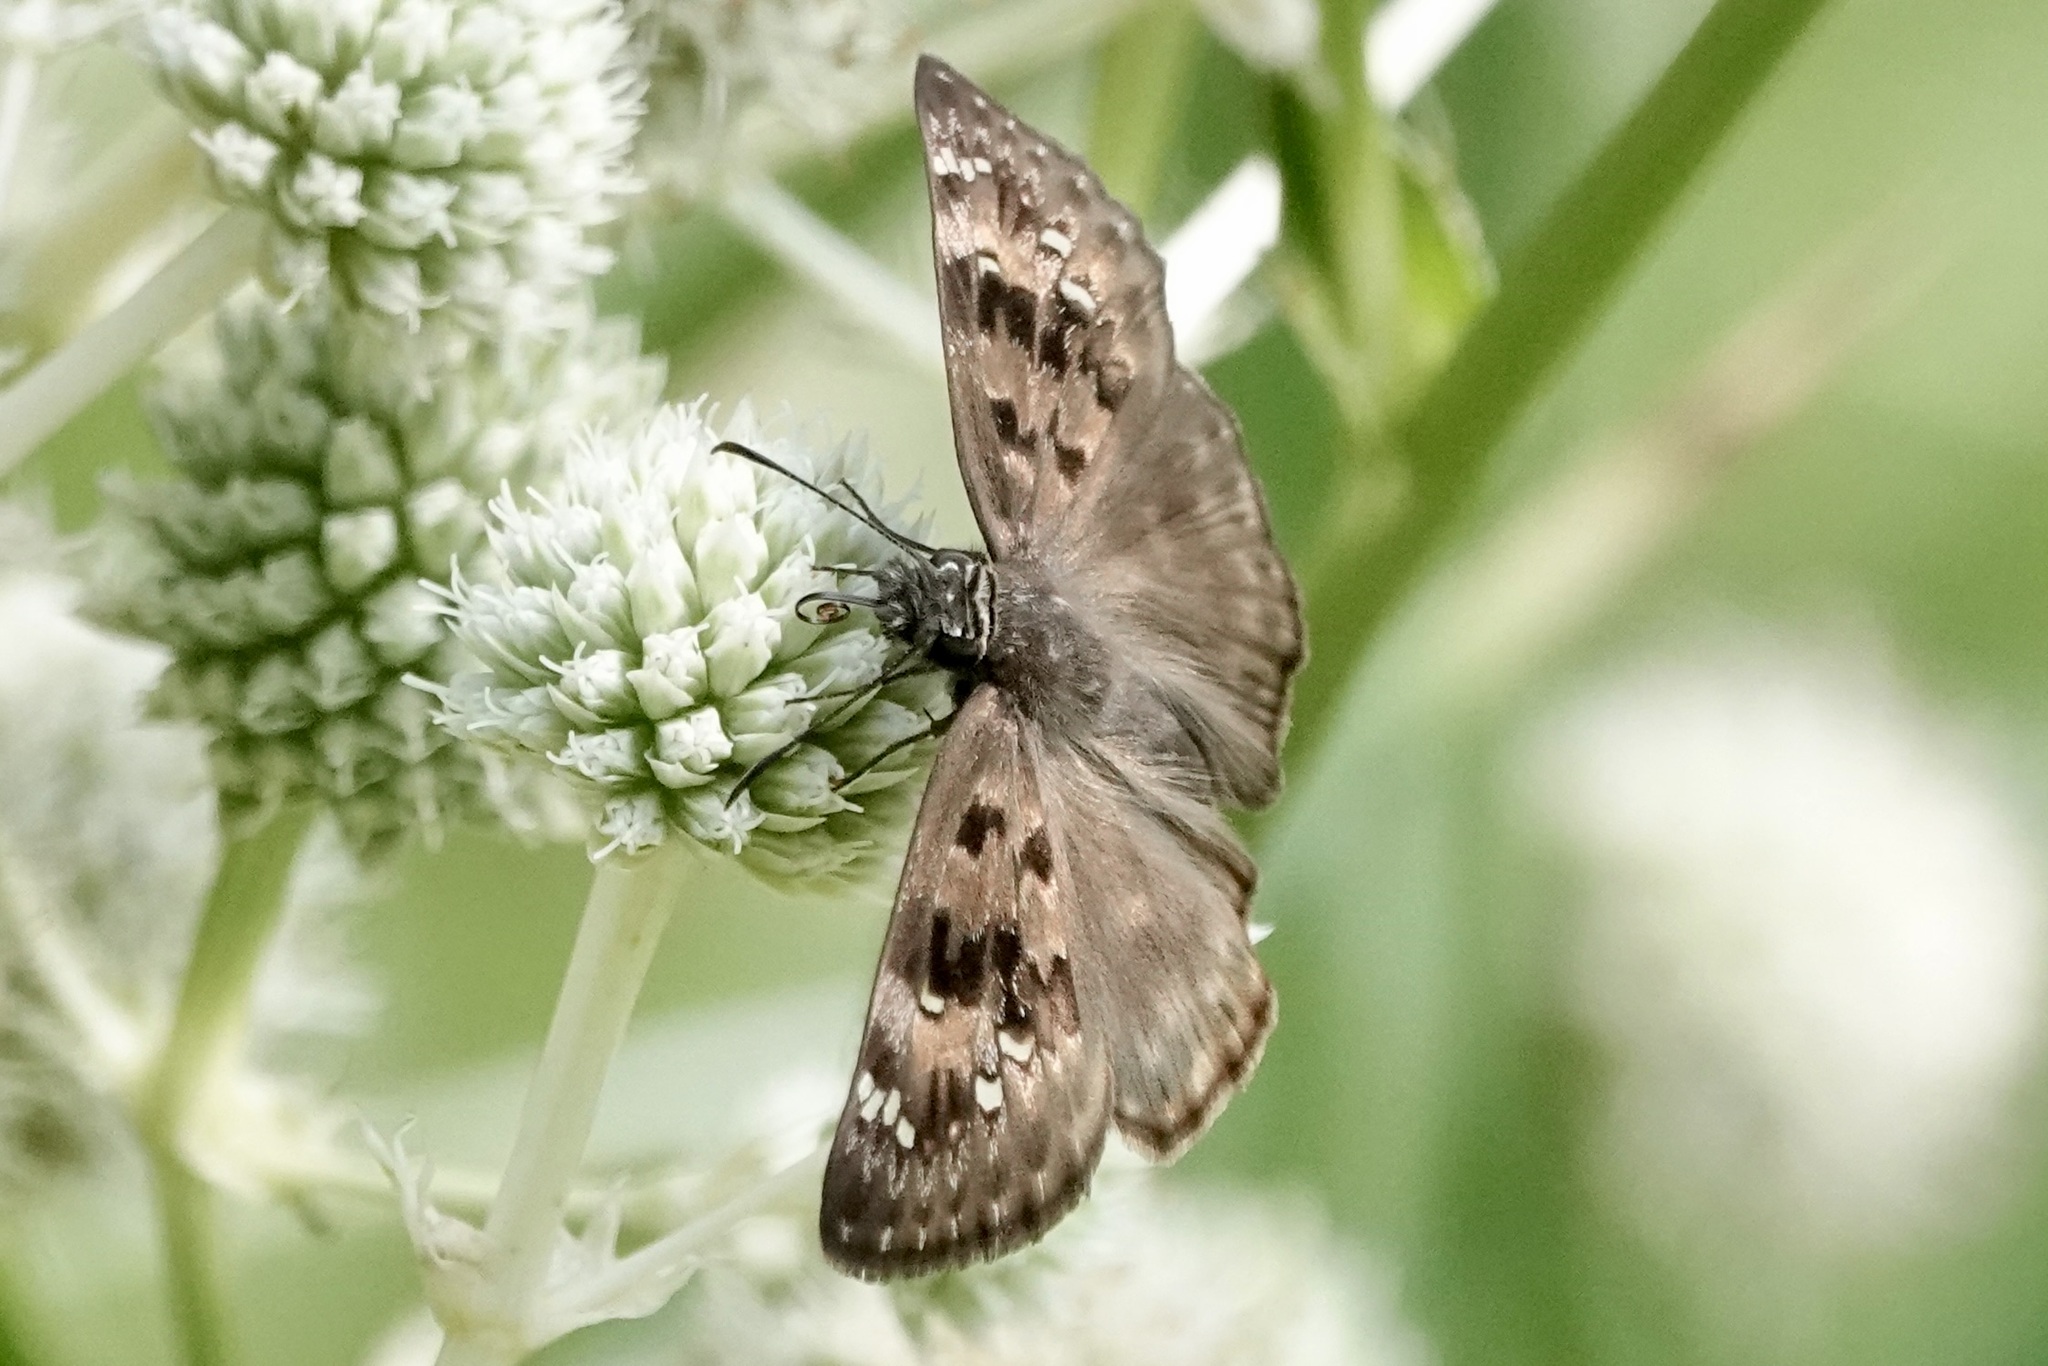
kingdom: Animalia
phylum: Arthropoda
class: Insecta
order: Lepidoptera
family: Hesperiidae
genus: Erynnis
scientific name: Erynnis horatius
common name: Horace's duskywing
